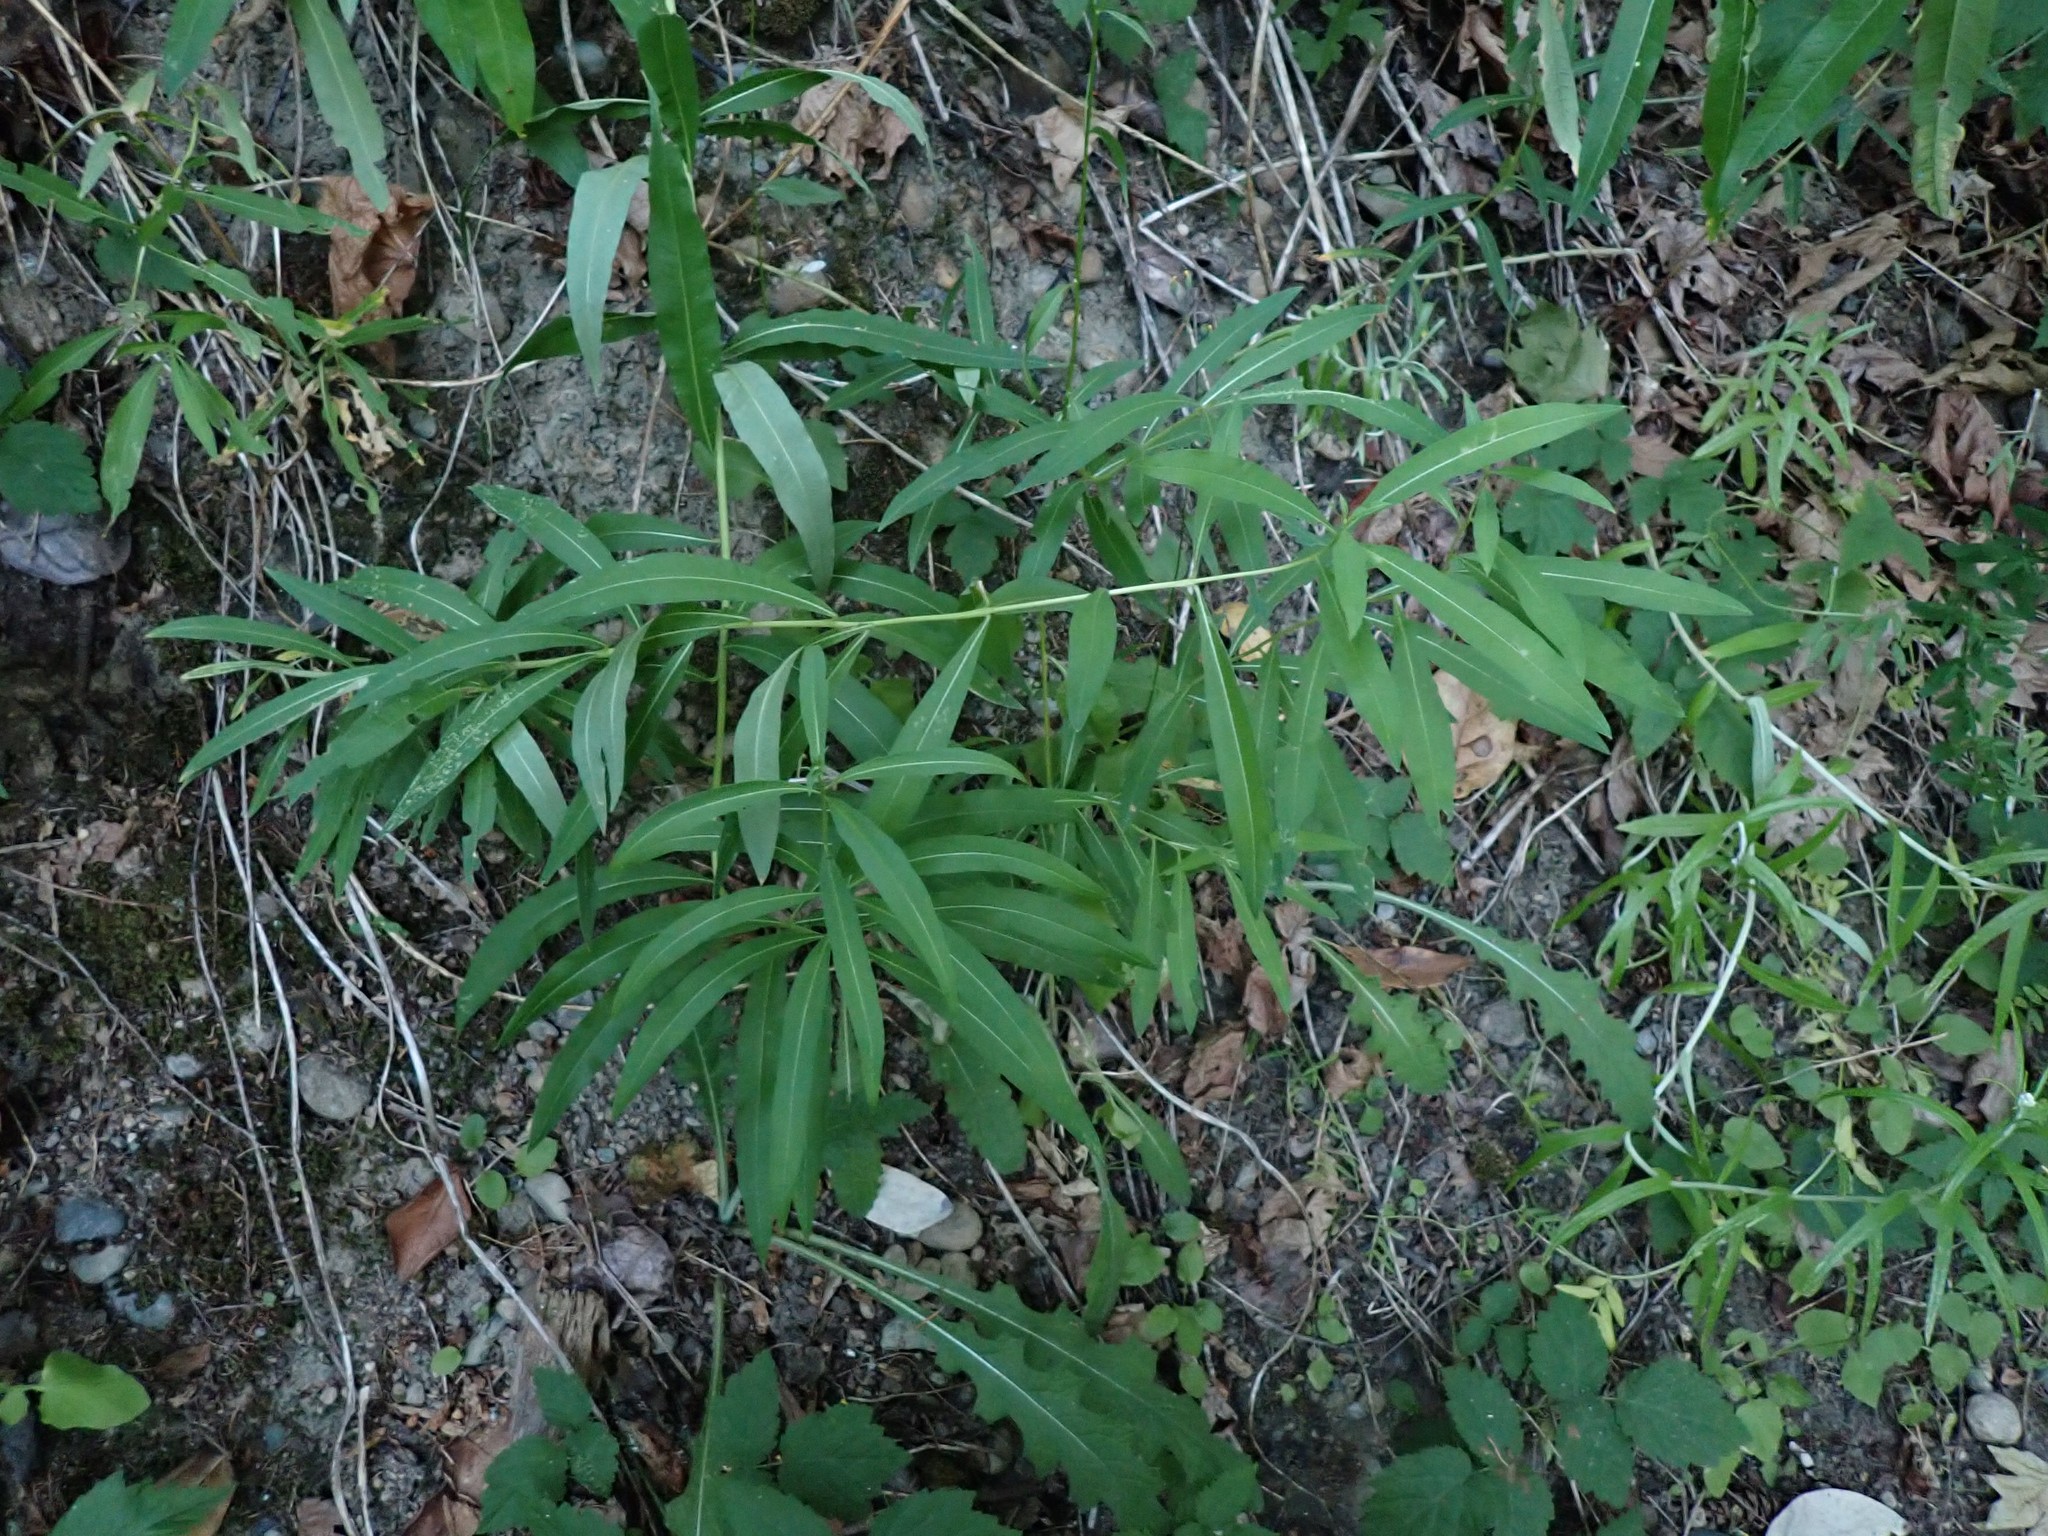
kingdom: Plantae
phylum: Tracheophyta
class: Magnoliopsida
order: Asterales
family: Asteraceae
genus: Anaphalis
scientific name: Anaphalis margaritacea
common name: Pearly everlasting
